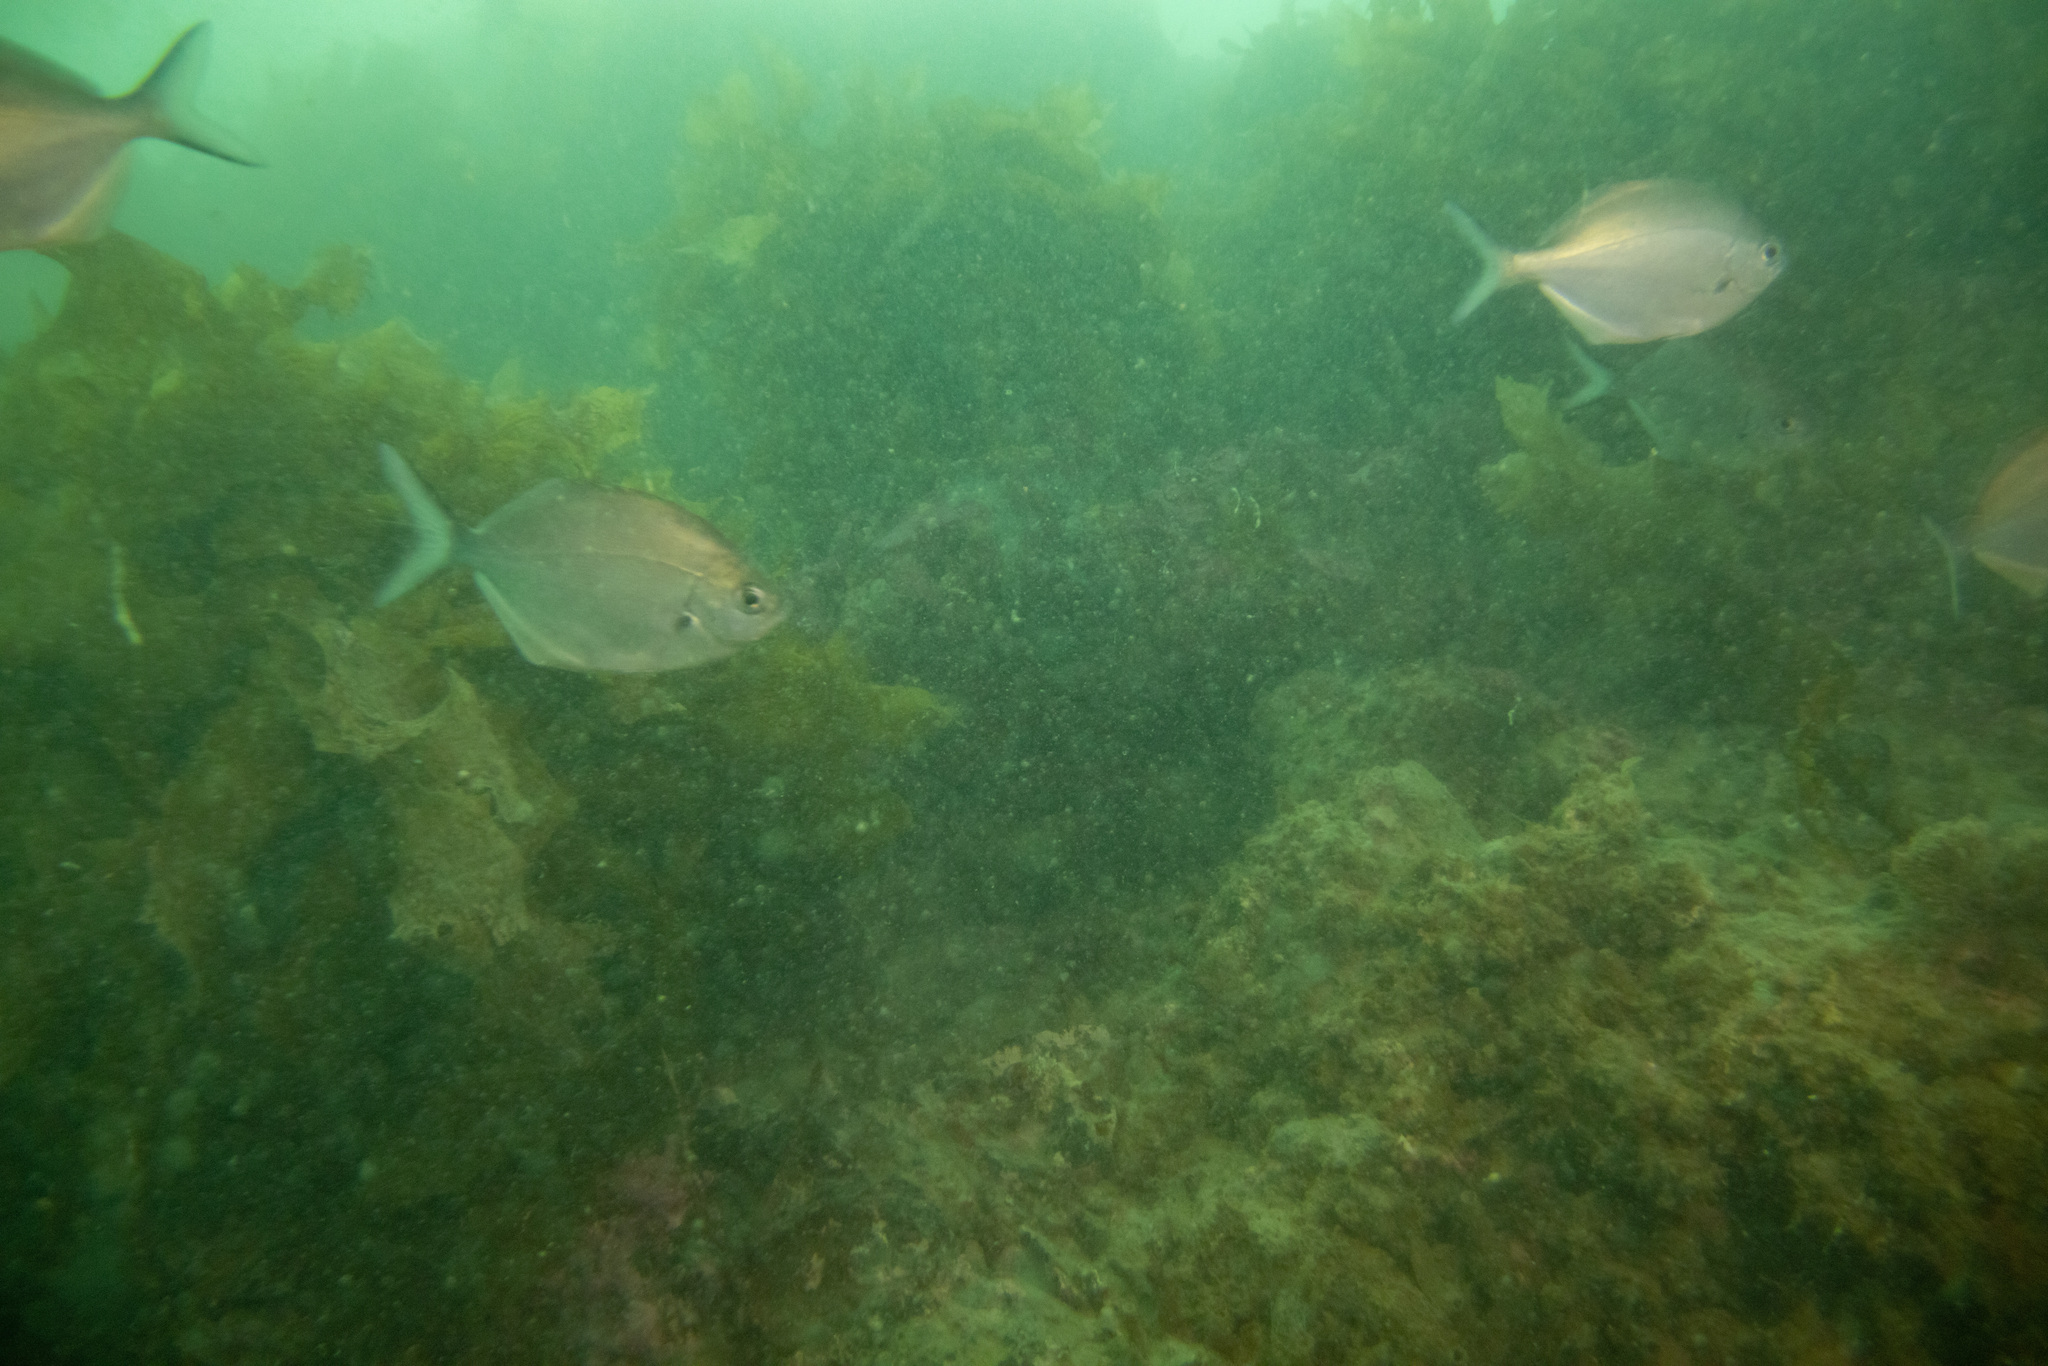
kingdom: Animalia
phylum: Chordata
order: Perciformes
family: Kyphosidae
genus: Scorpis
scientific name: Scorpis lineolata
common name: Sweep
